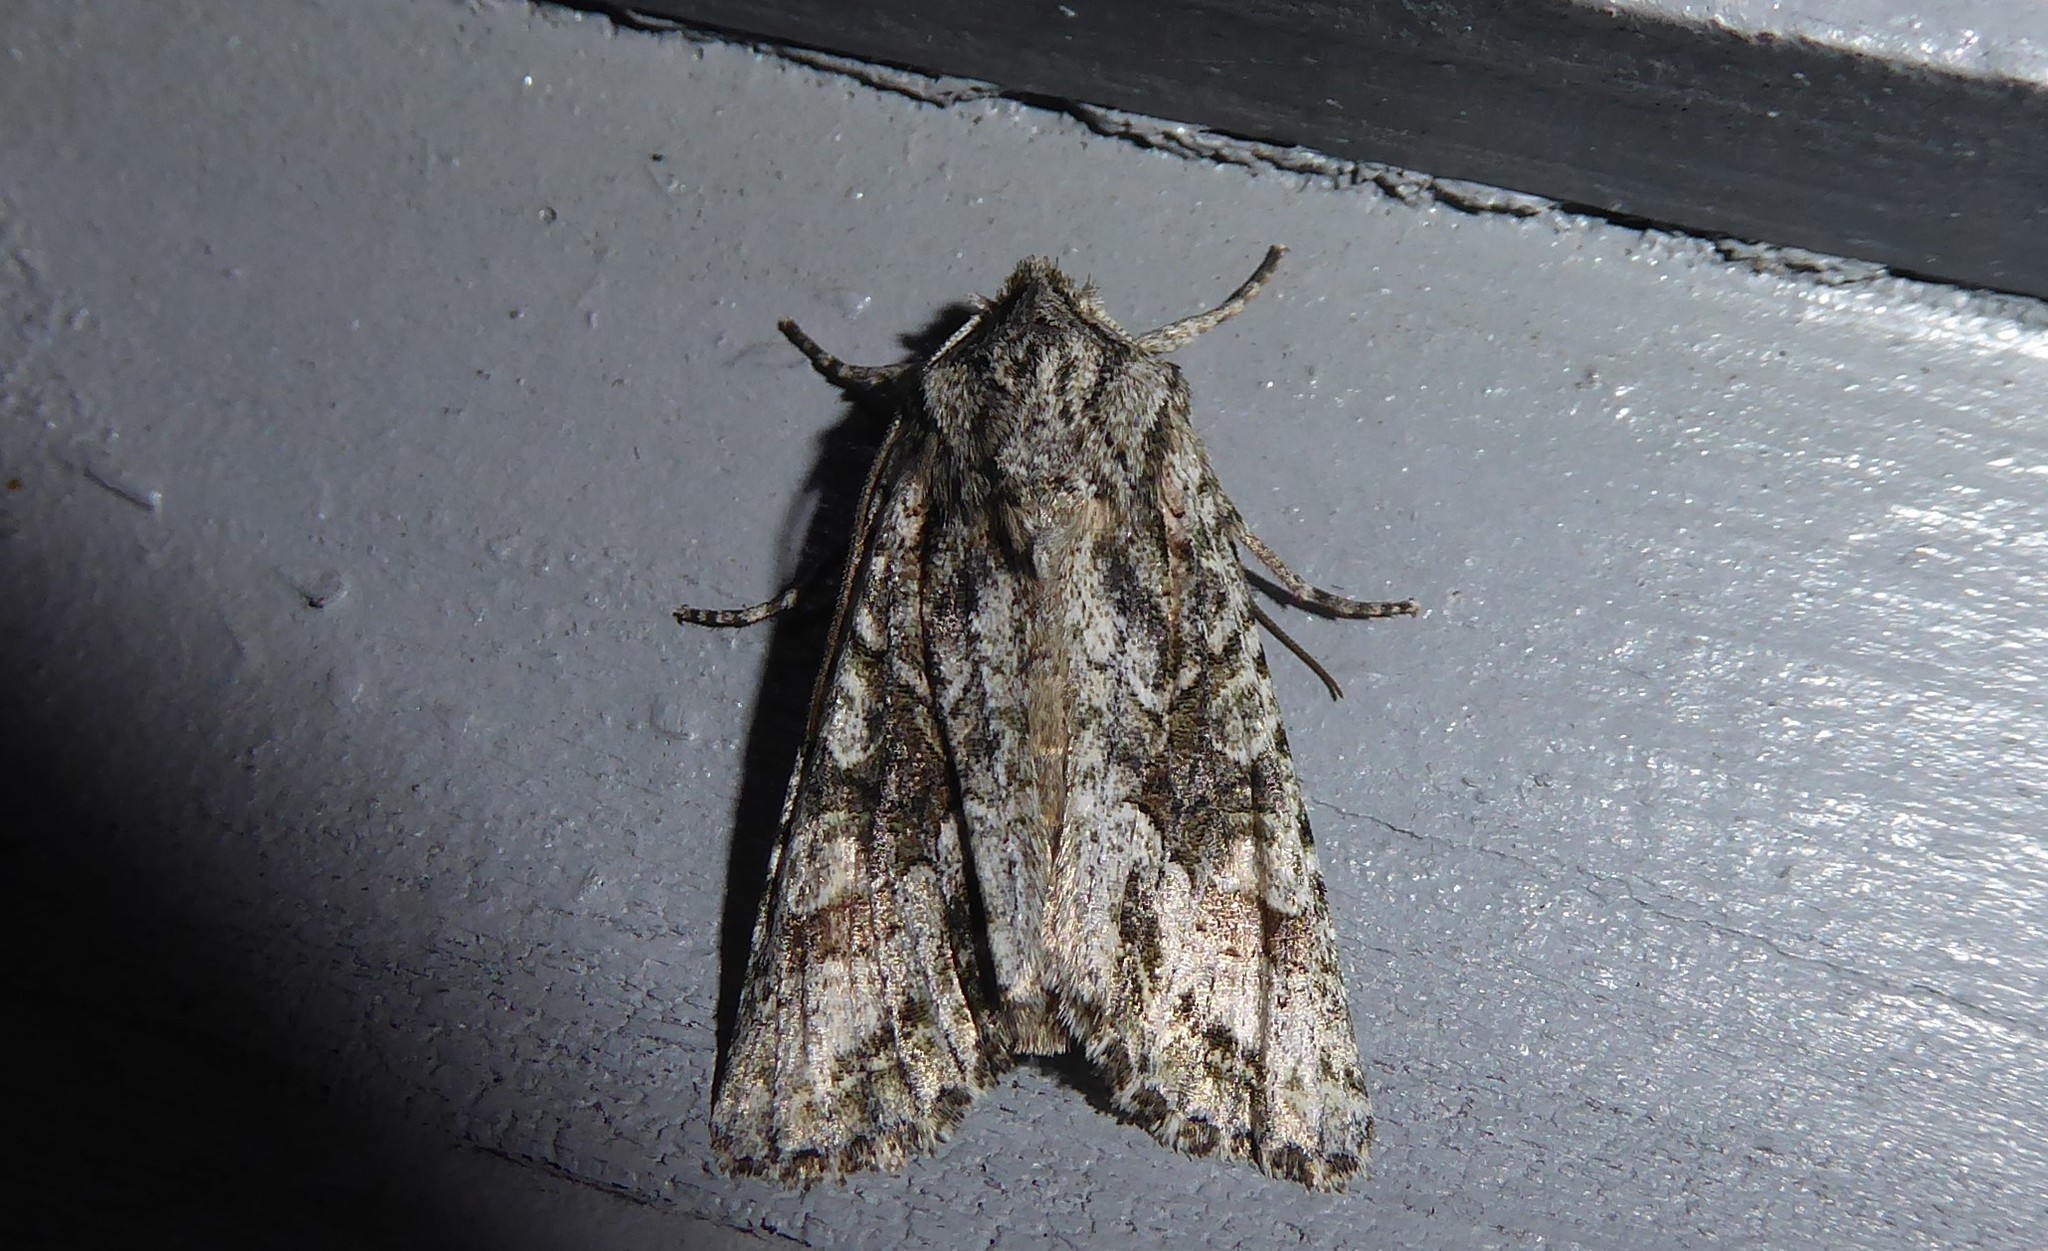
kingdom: Animalia
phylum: Arthropoda
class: Insecta
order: Lepidoptera
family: Noctuidae
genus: Ichneutica
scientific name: Ichneutica mutans
